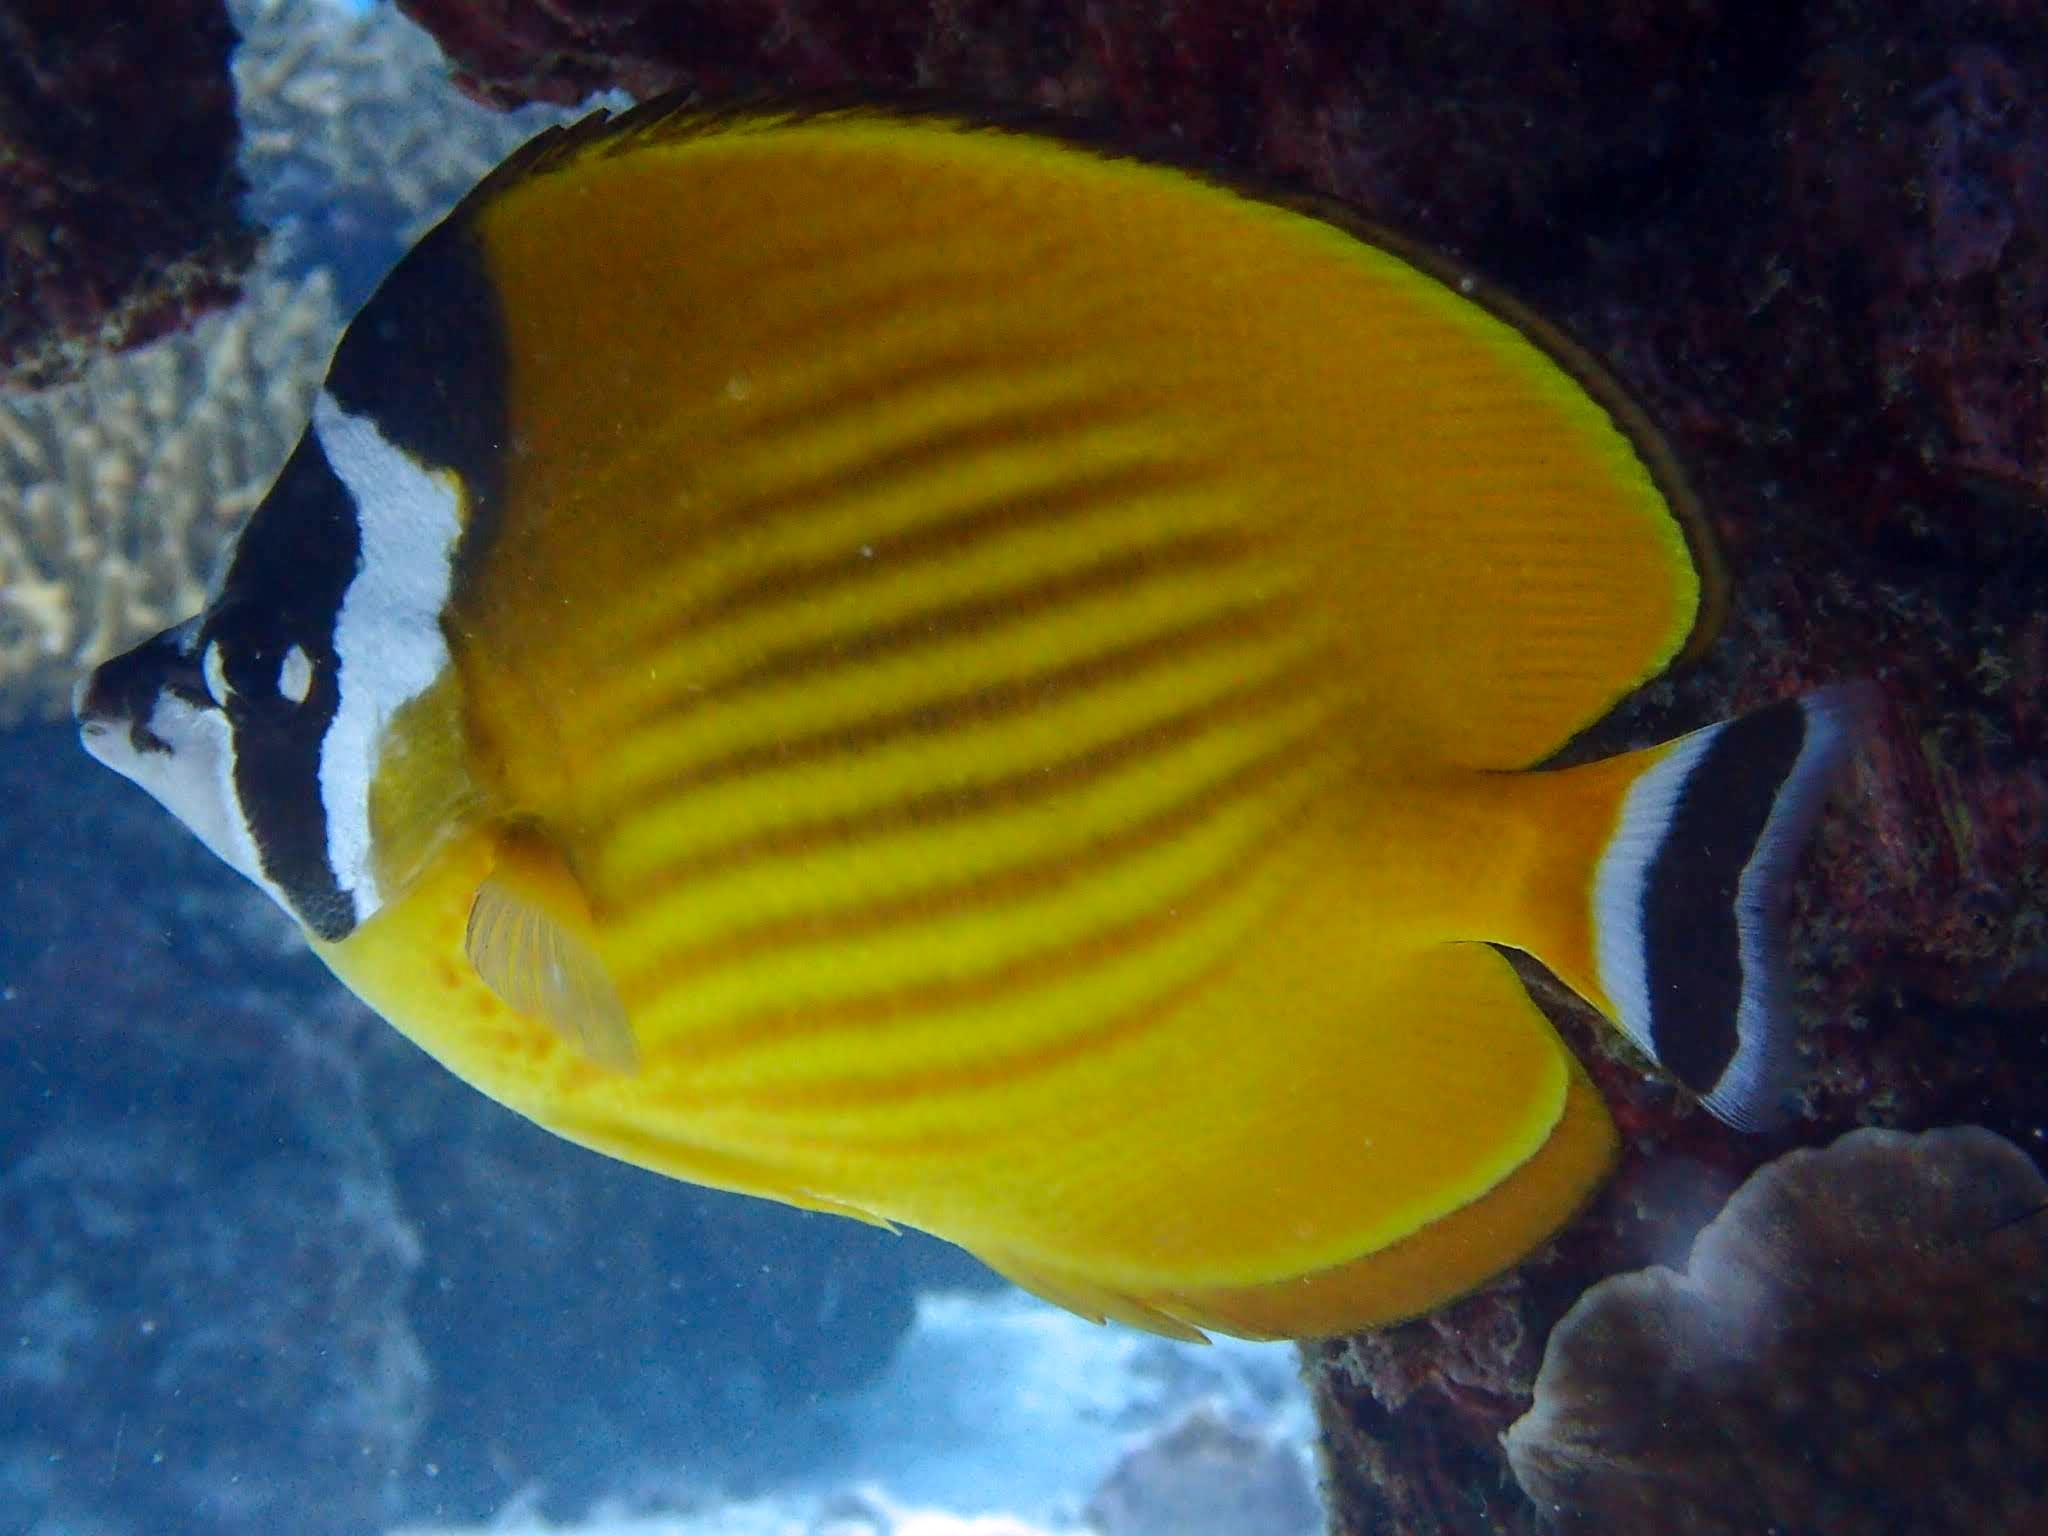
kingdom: Animalia
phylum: Chordata
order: Perciformes
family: Chaetodontidae
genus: Chaetodon
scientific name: Chaetodon wiebeli
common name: Butterflyfish
